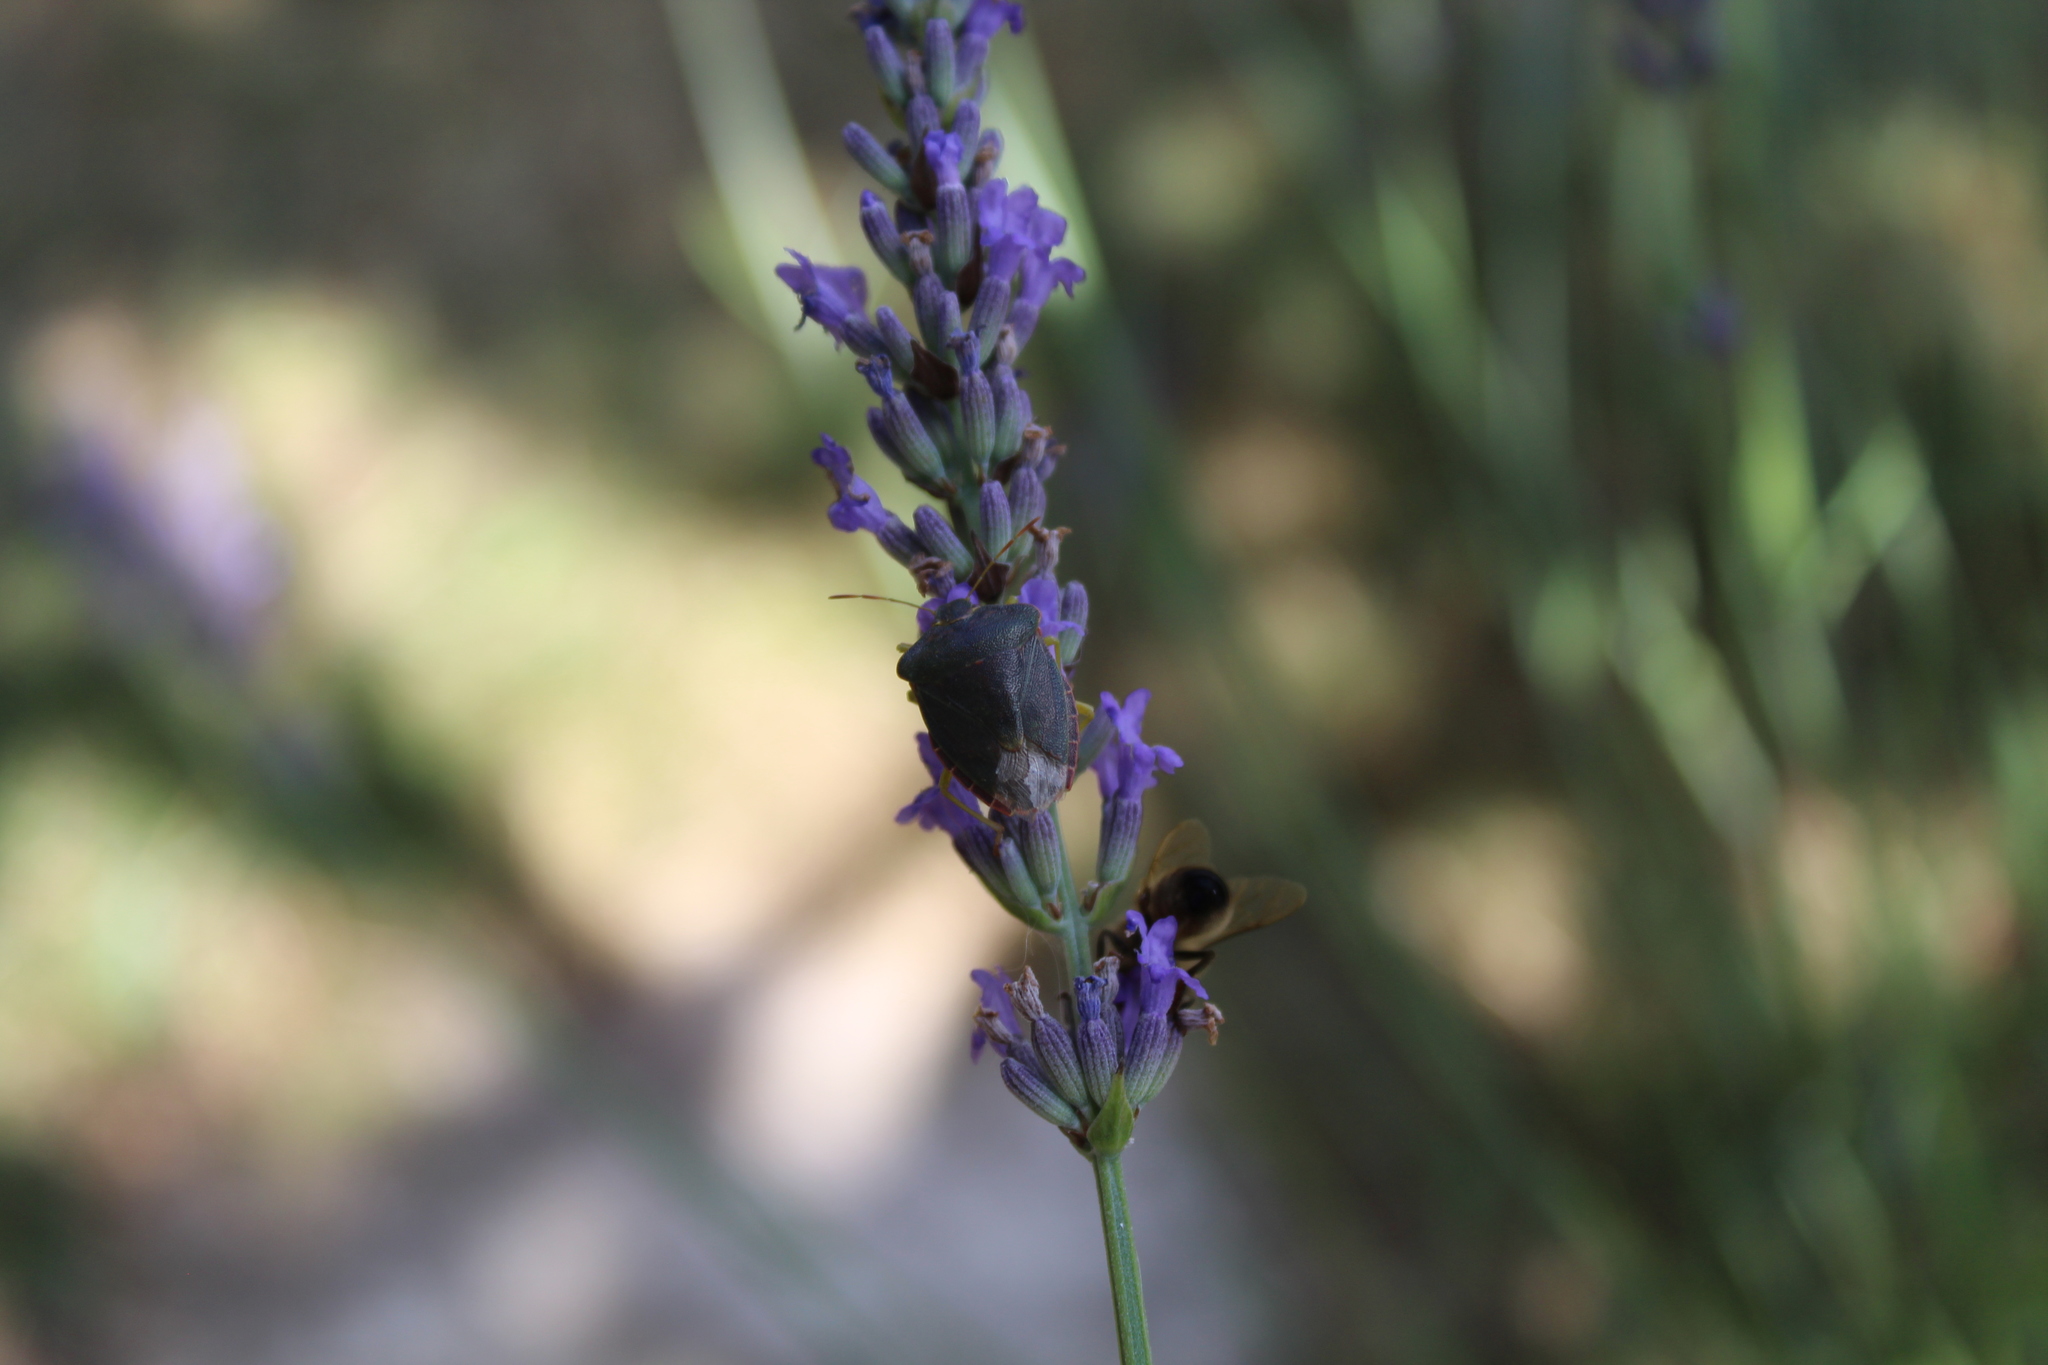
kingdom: Animalia
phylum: Arthropoda
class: Insecta
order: Hemiptera
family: Pentatomidae
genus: Palomena
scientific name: Palomena prasina
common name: Green shieldbug
